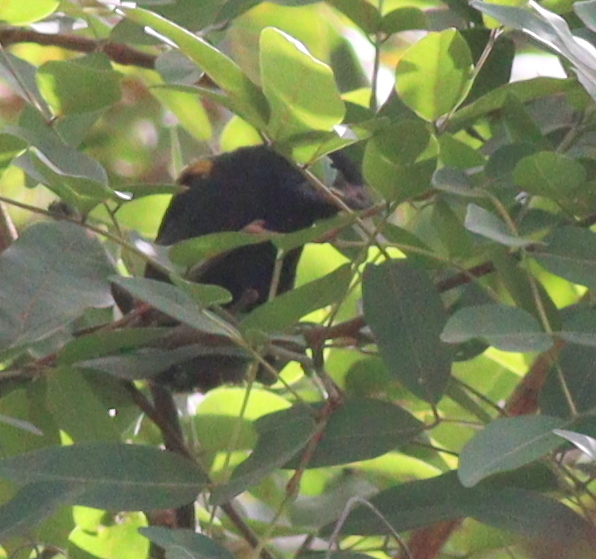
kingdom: Animalia
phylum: Chordata
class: Aves
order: Passeriformes
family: Icteridae
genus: Icterus
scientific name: Icterus cayanensis
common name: Epaulet oriole
